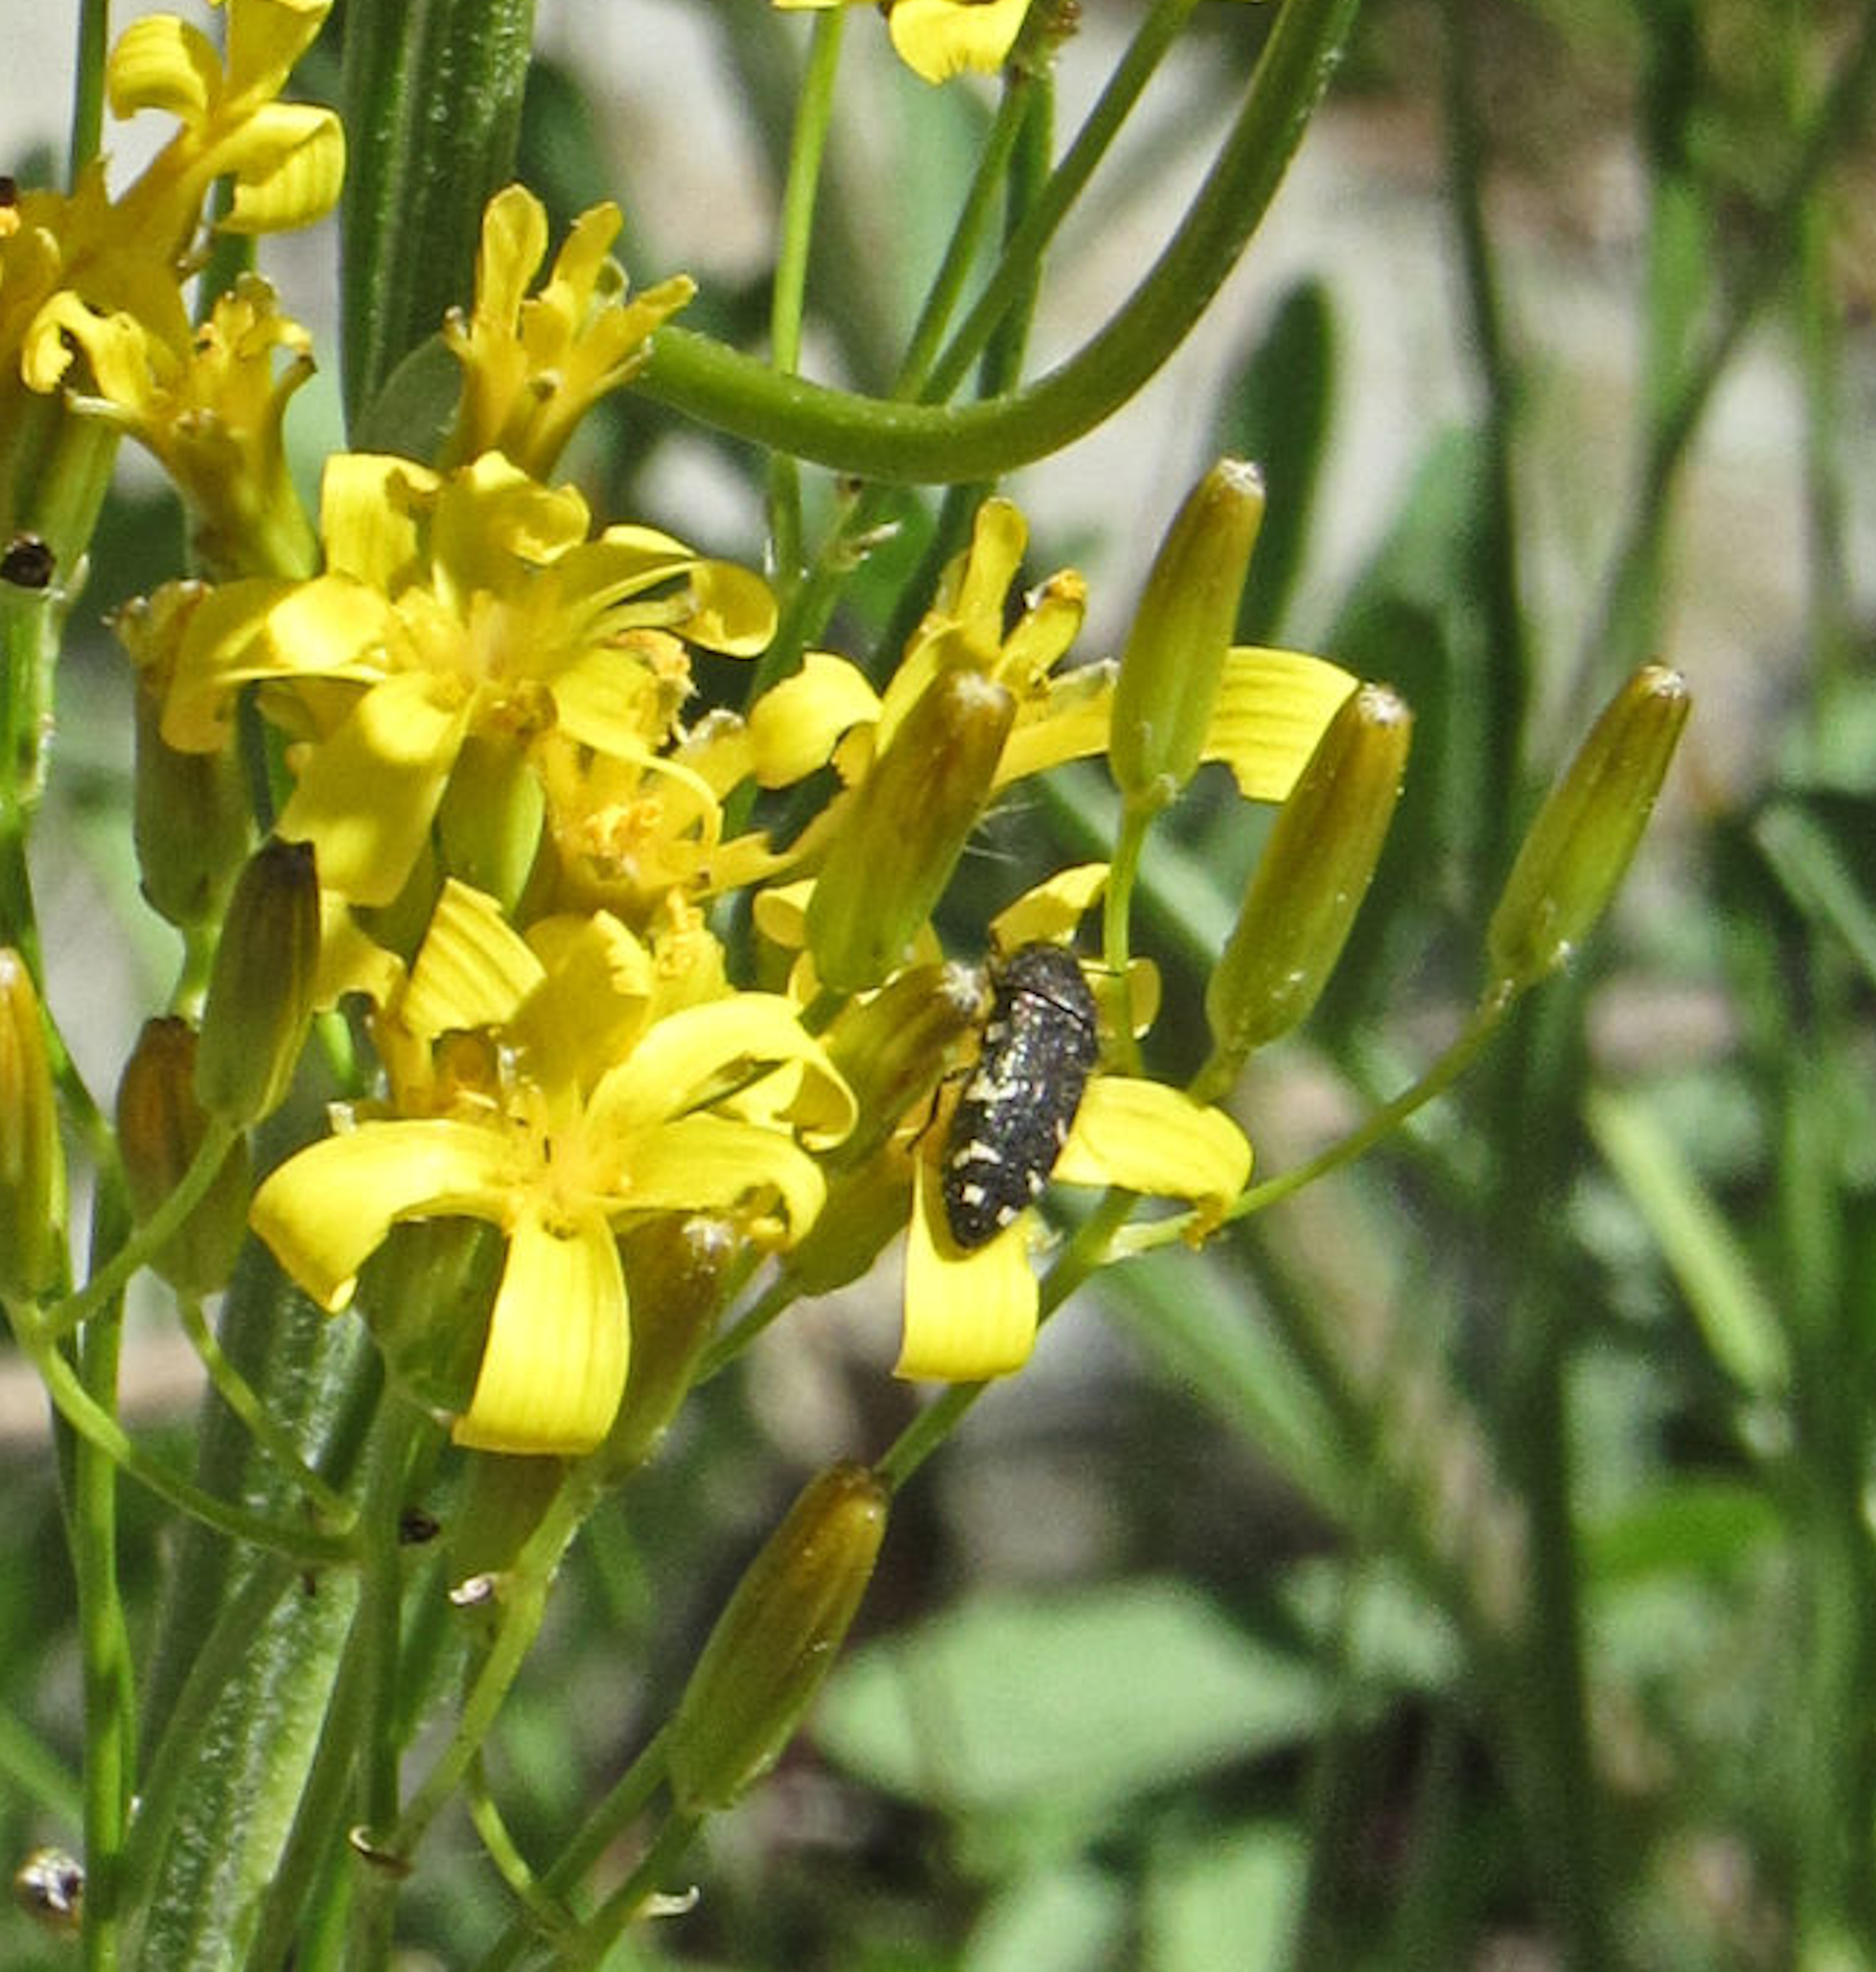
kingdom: Animalia
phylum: Arthropoda
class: Insecta
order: Coleoptera
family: Buprestidae
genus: Acmaeodera
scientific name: Acmaeodera idahoensis
